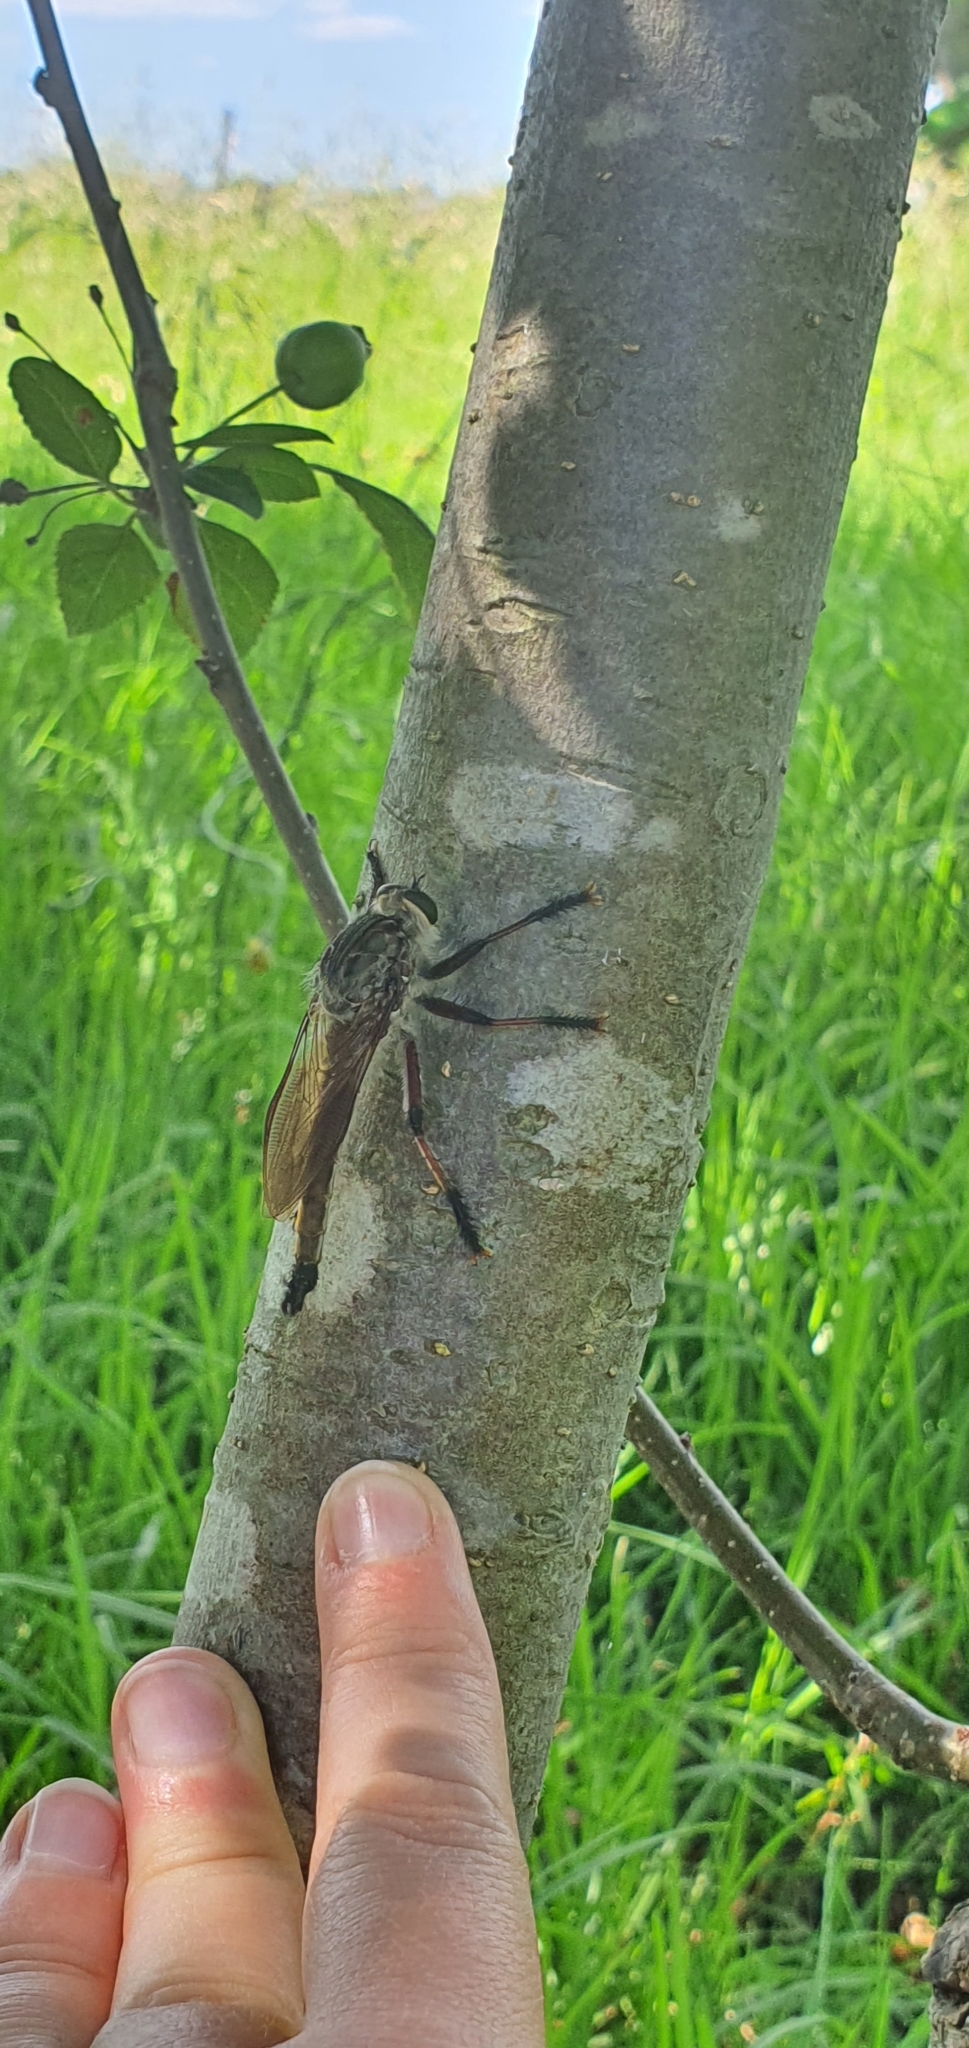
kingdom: Animalia
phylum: Arthropoda
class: Insecta
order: Diptera
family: Asilidae
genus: Neoaratus
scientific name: Neoaratus hercules
